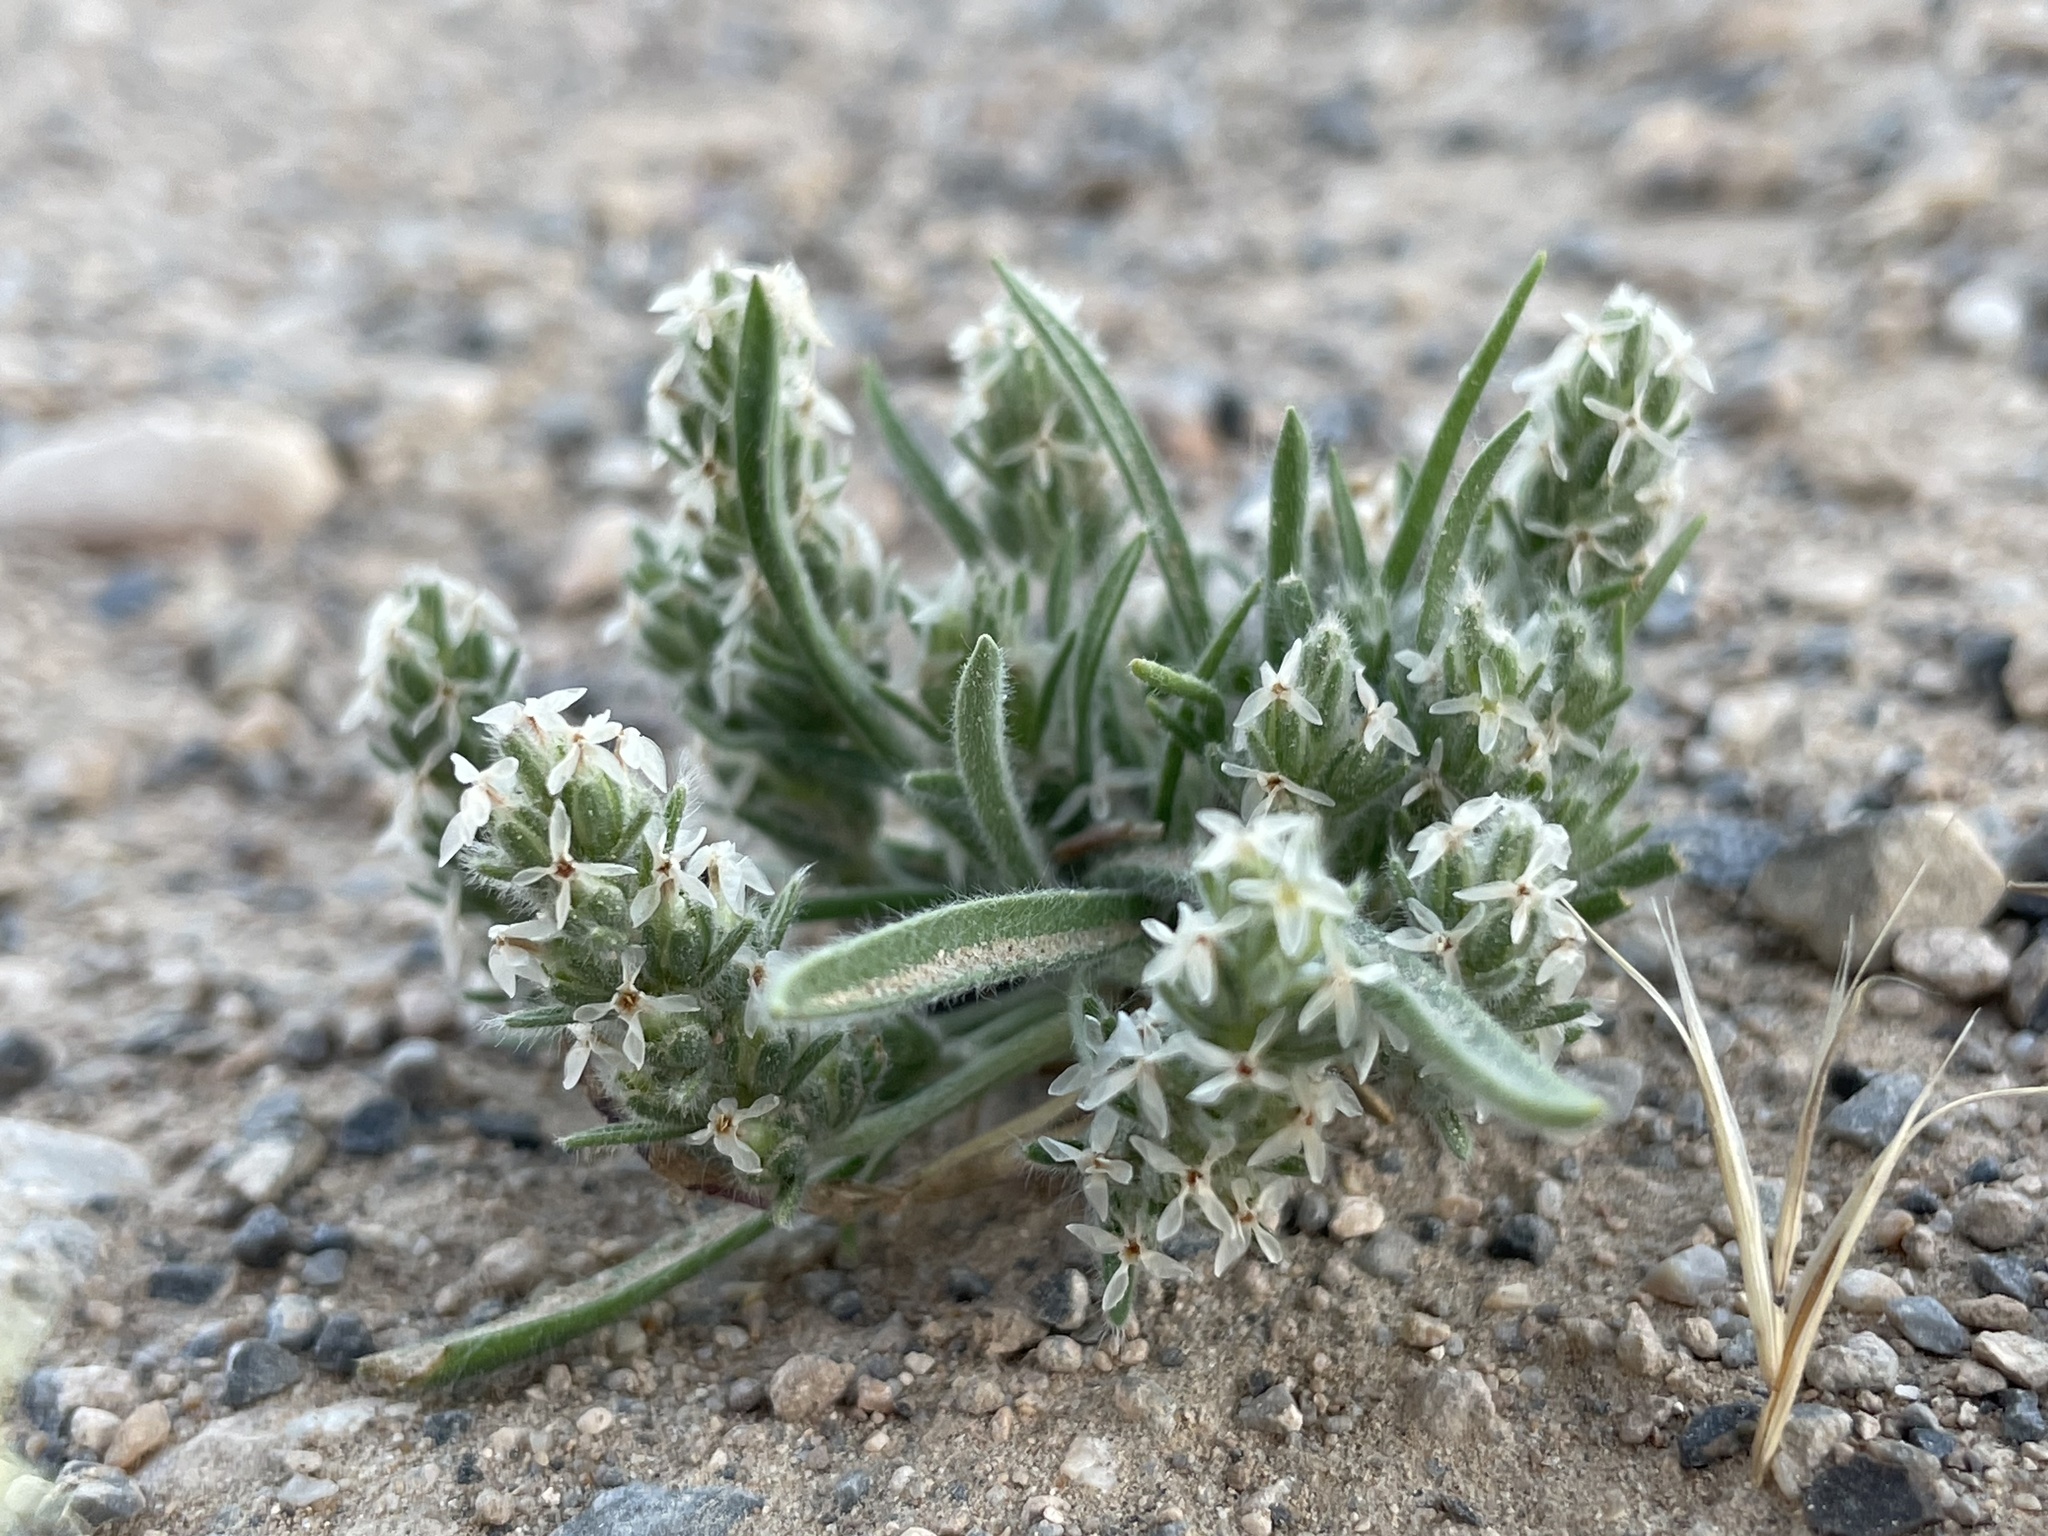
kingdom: Plantae
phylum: Tracheophyta
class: Magnoliopsida
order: Lamiales
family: Plantaginaceae
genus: Plantago
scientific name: Plantago patagonica
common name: Patagonia indian-wheat
